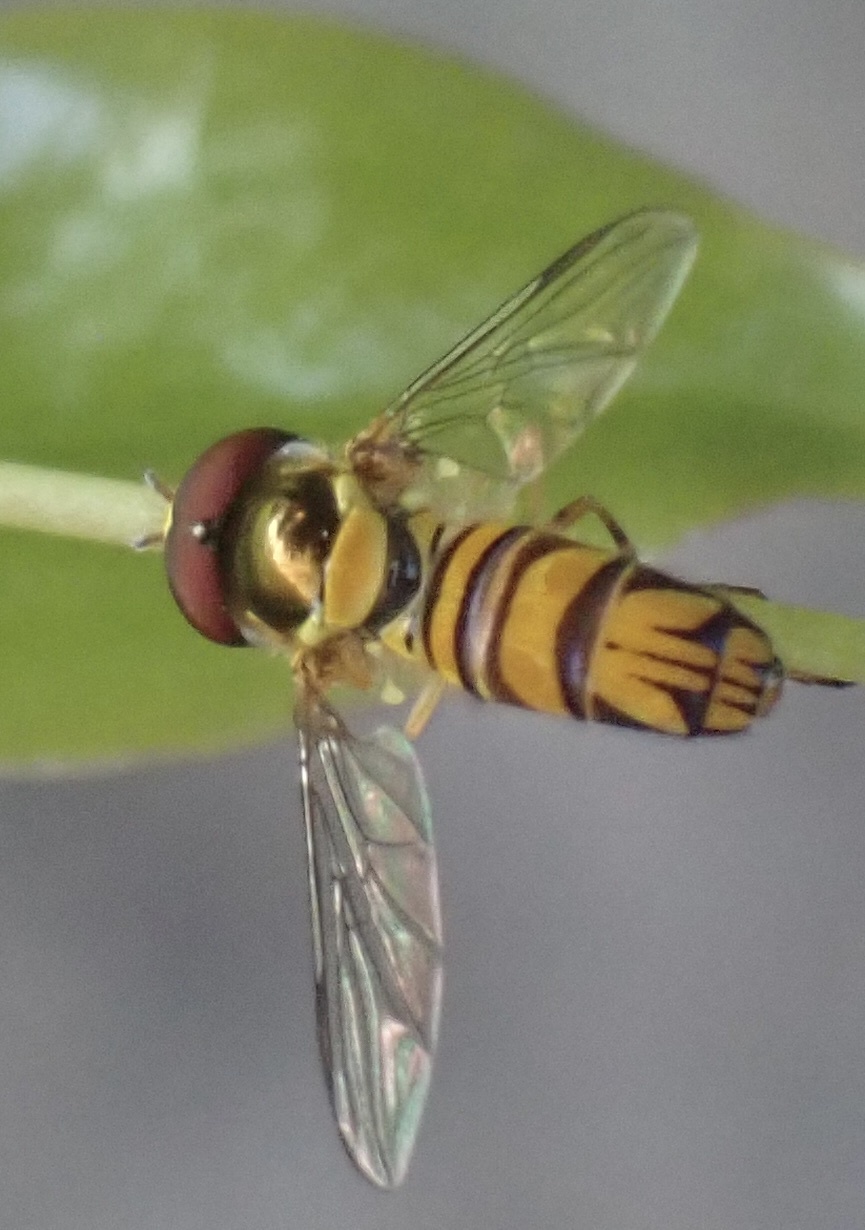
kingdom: Animalia
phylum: Arthropoda
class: Insecta
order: Diptera
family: Syrphidae
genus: Allograpta
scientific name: Allograpta obliqua
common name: Common oblique syrphid
